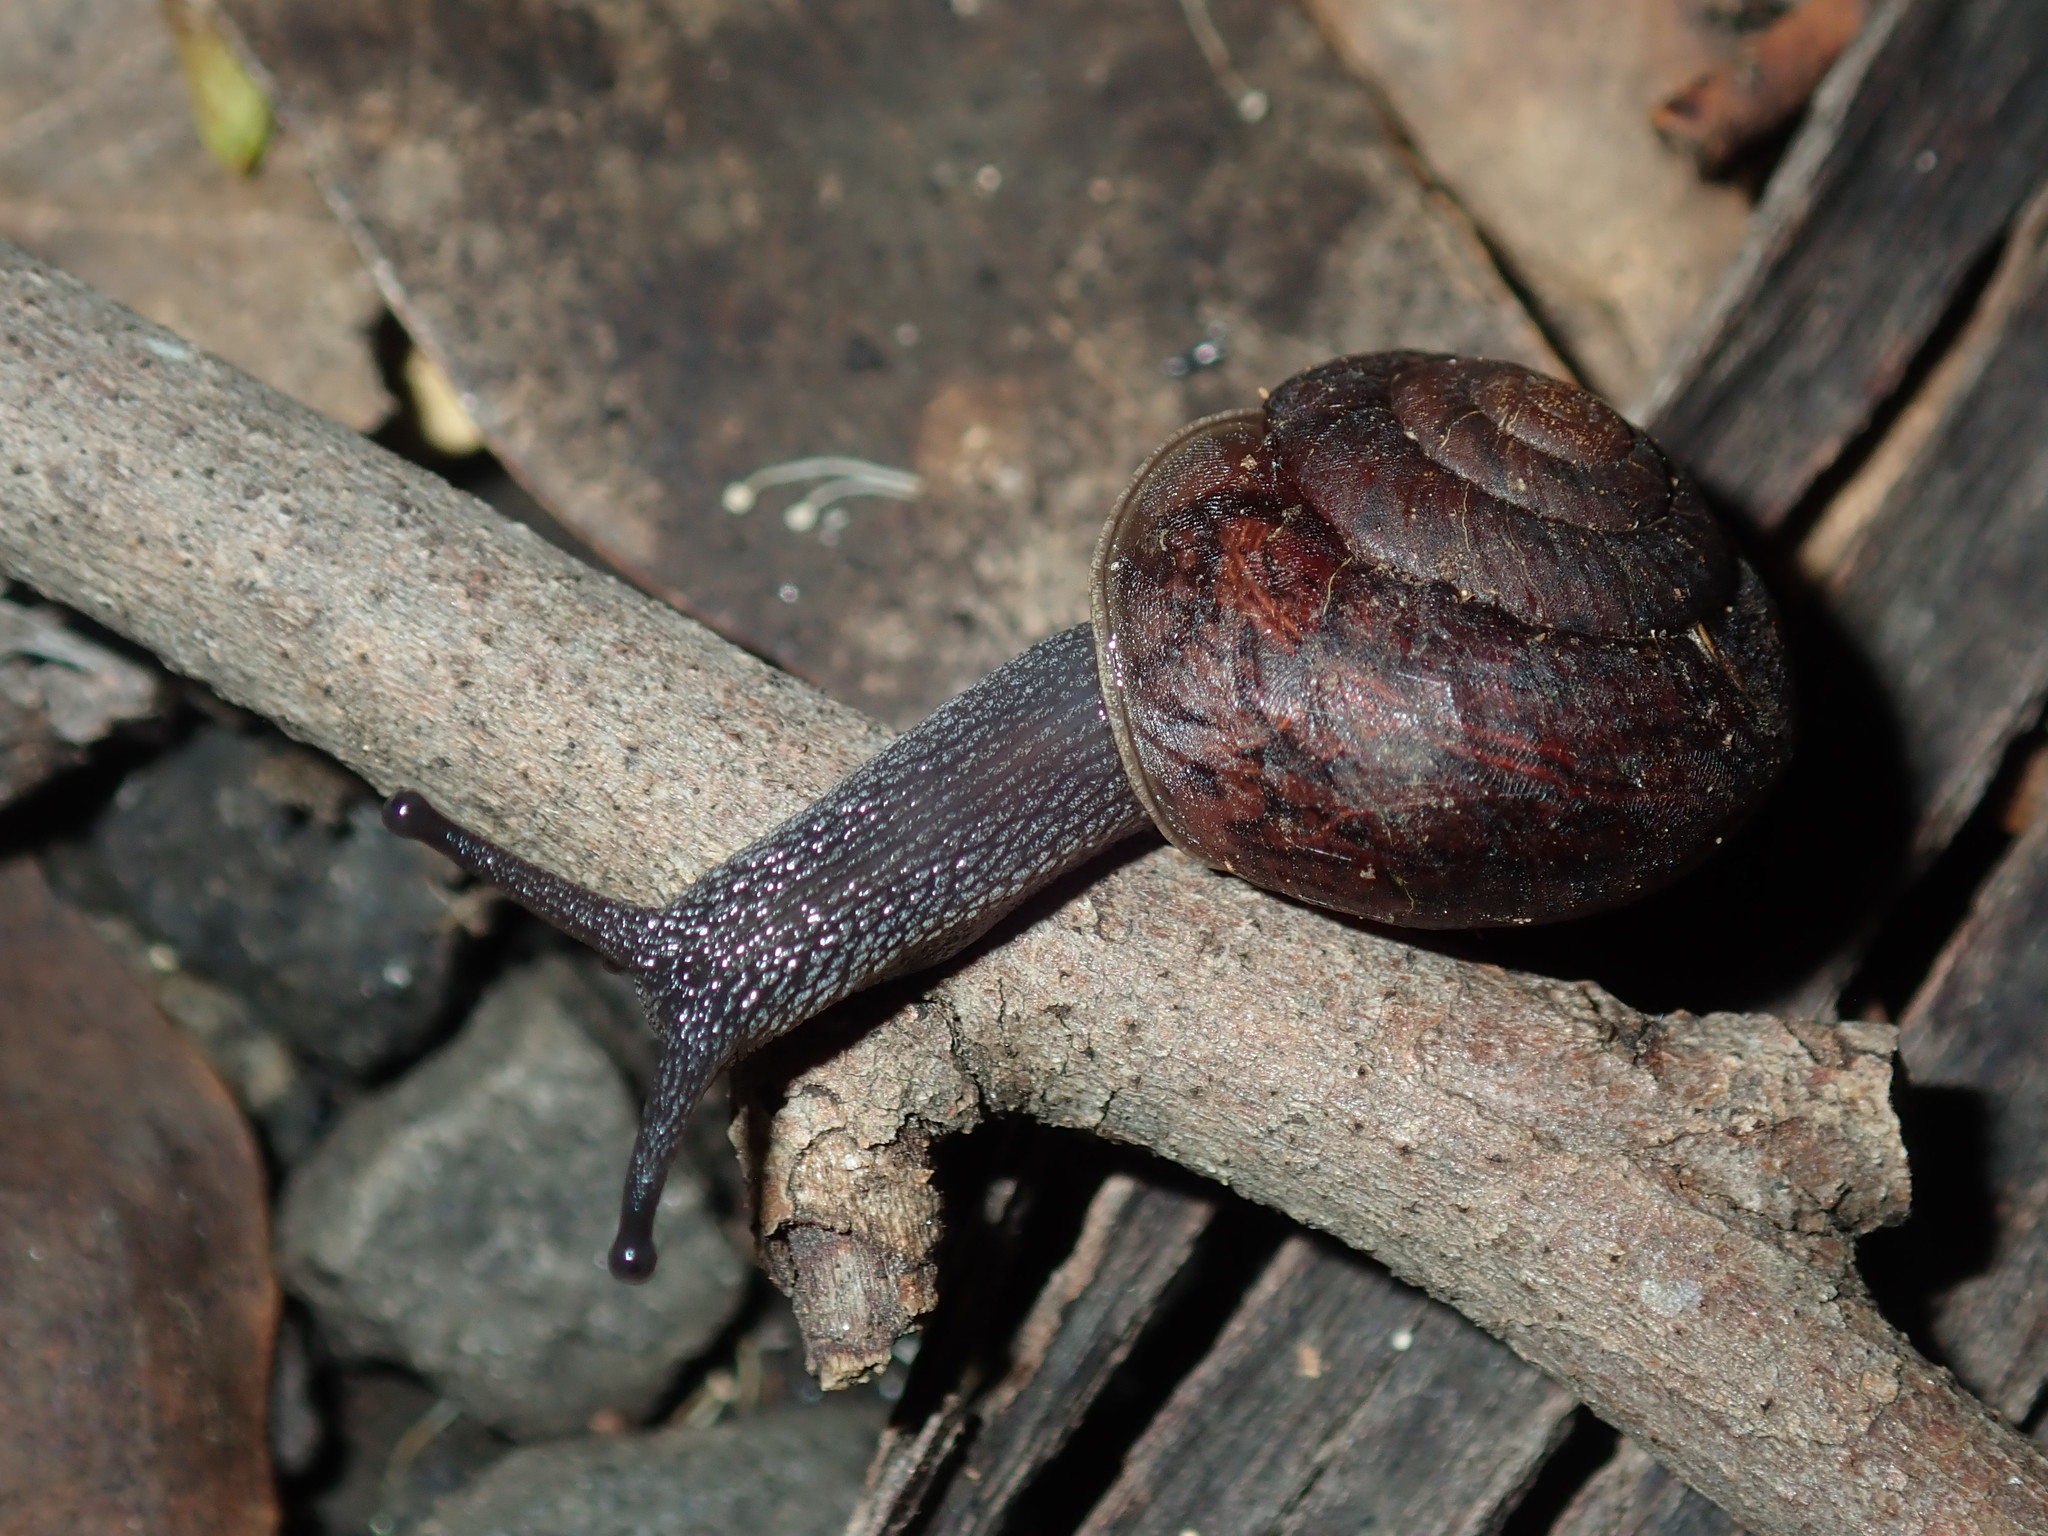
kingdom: Animalia
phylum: Mollusca
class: Gastropoda
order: Stylommatophora
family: Camaenidae
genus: Sauroconcha
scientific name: Sauroconcha sheai
